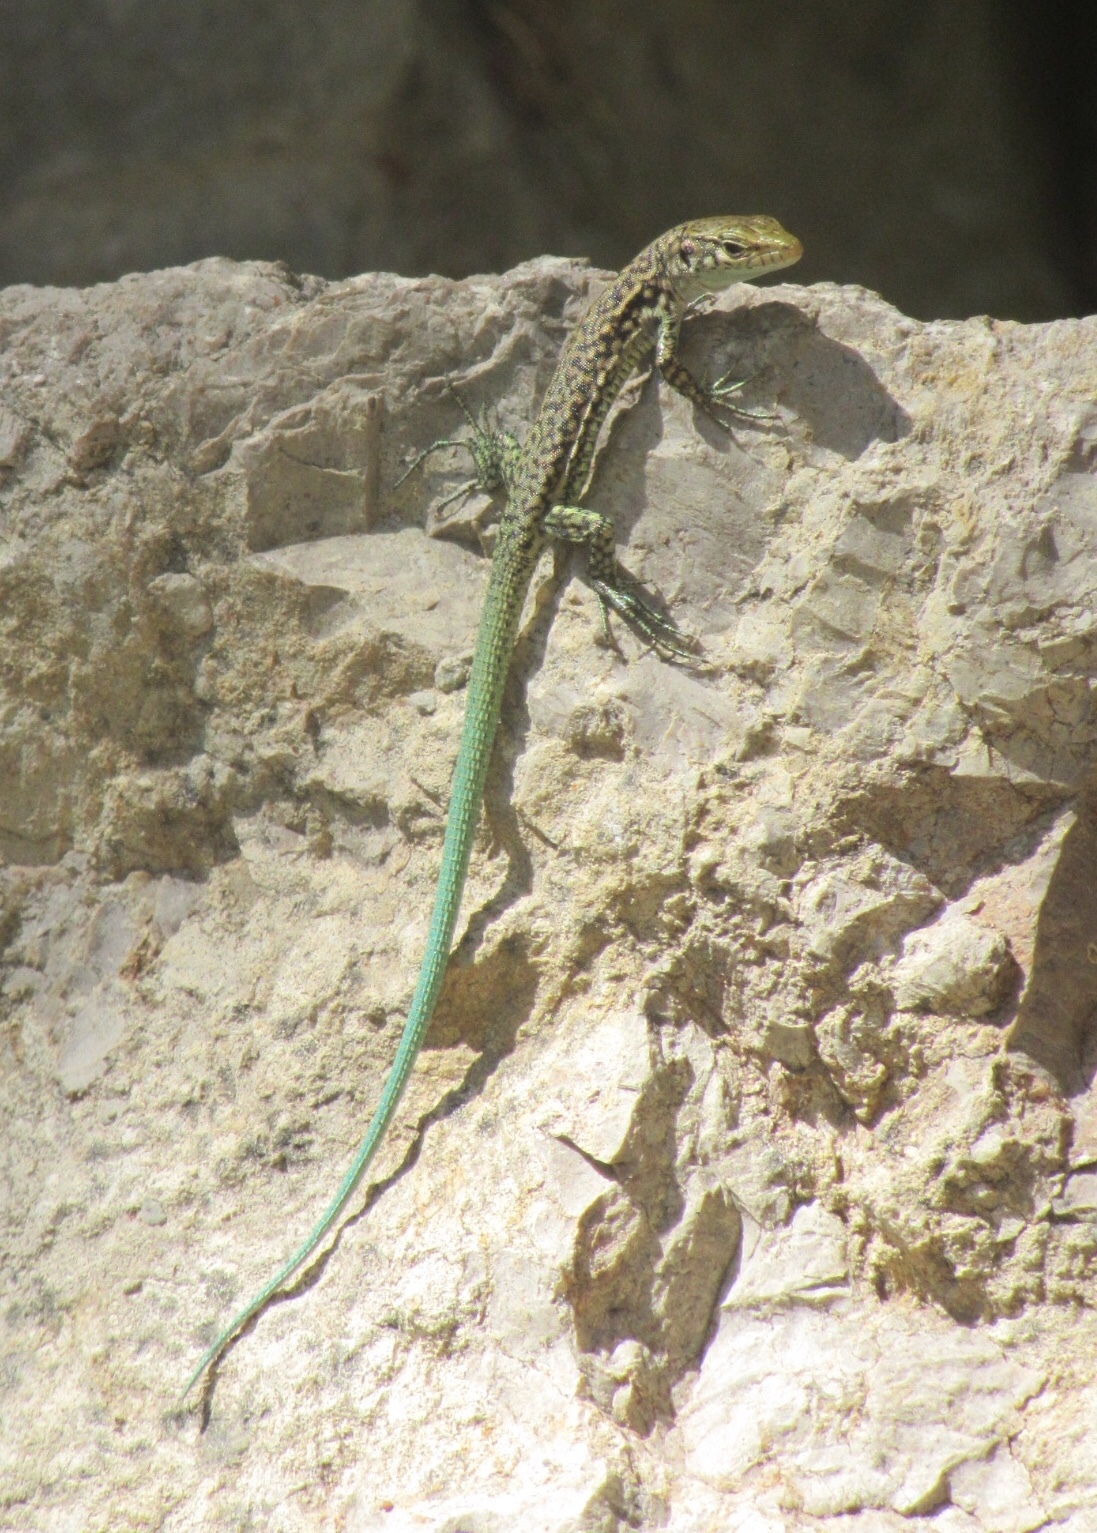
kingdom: Animalia
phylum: Chordata
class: Squamata
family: Lacertidae
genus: Darevskia
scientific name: Darevskia lindholmi
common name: Crimean rock lizard
